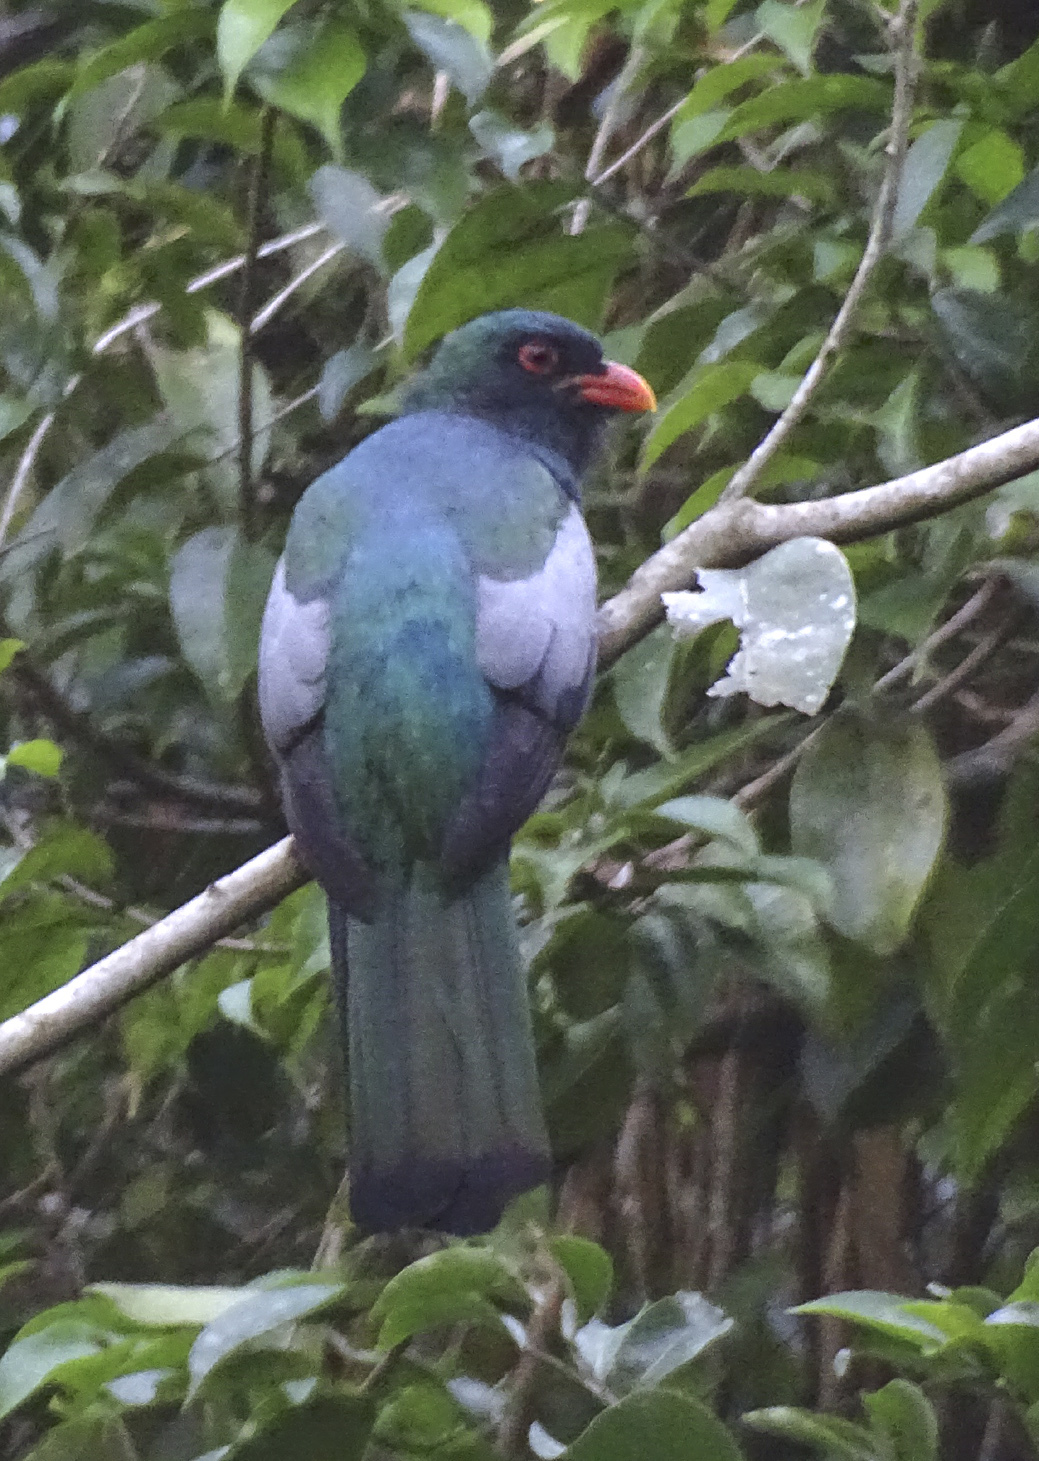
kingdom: Animalia
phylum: Chordata
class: Aves
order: Trogoniformes
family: Trogonidae
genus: Trogon
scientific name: Trogon massena
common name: Slaty-tailed trogon
